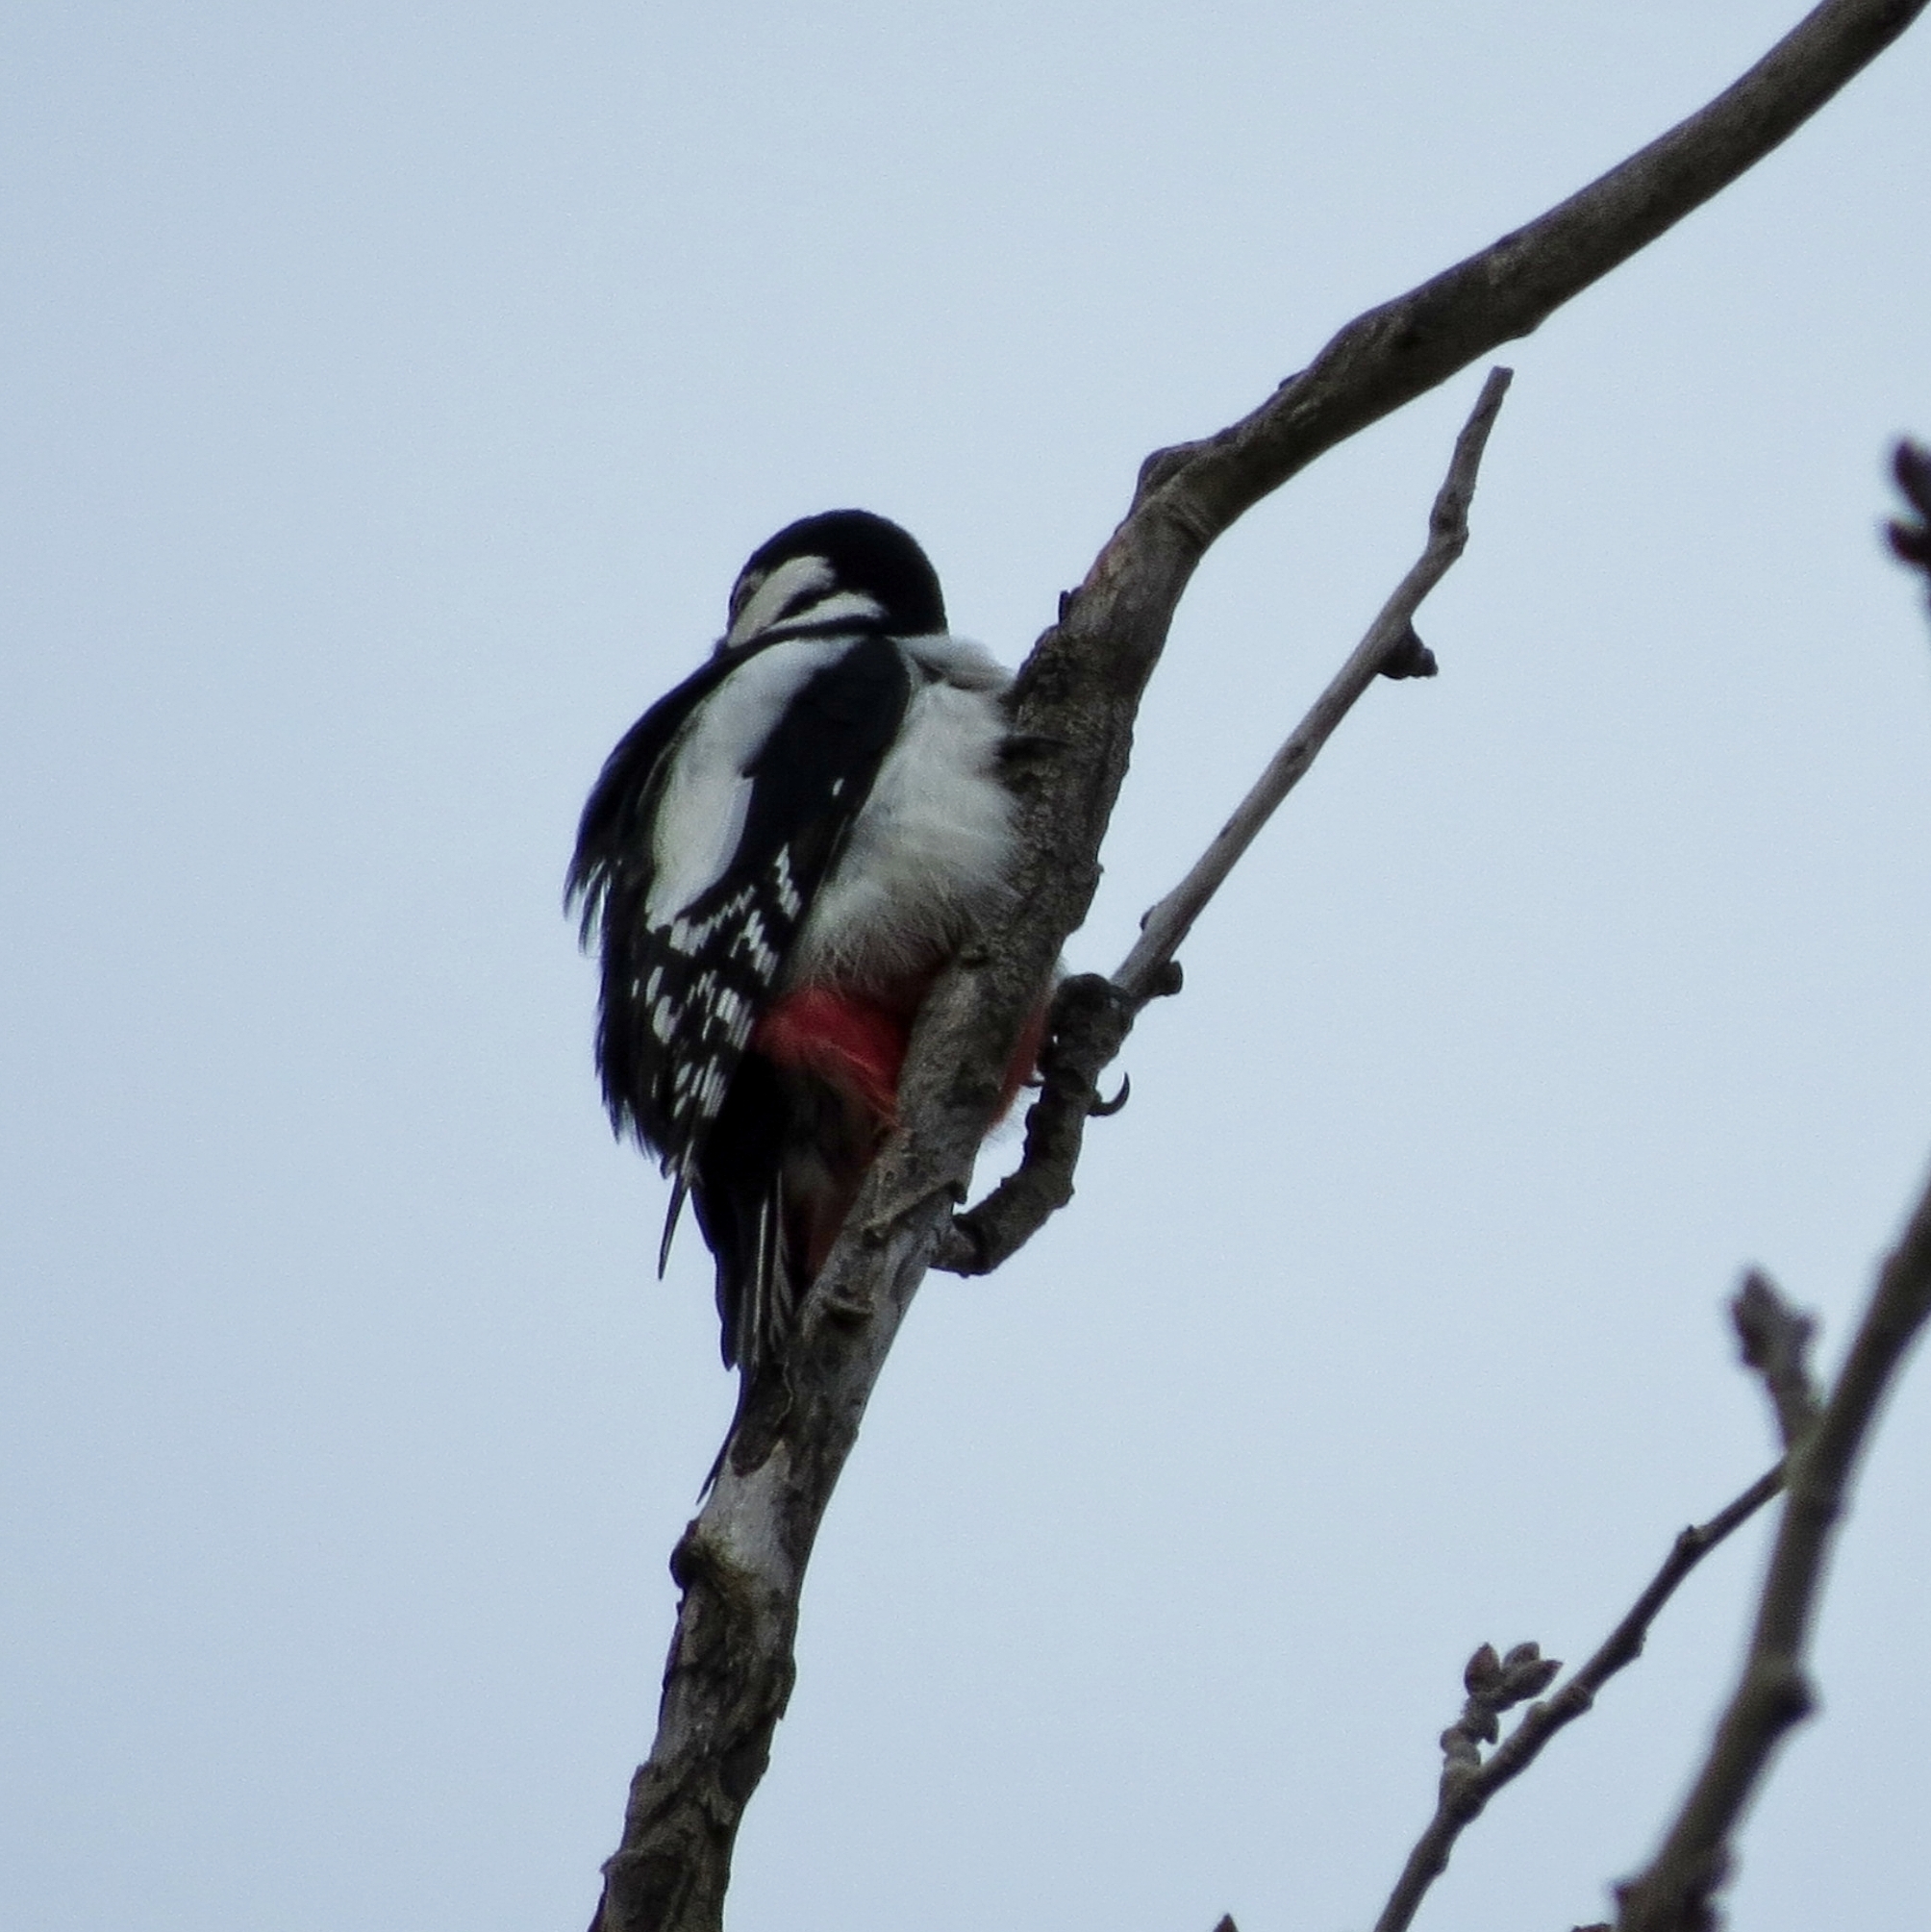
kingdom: Animalia
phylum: Chordata
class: Aves
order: Piciformes
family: Picidae
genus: Dendrocopos
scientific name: Dendrocopos major
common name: Great spotted woodpecker
